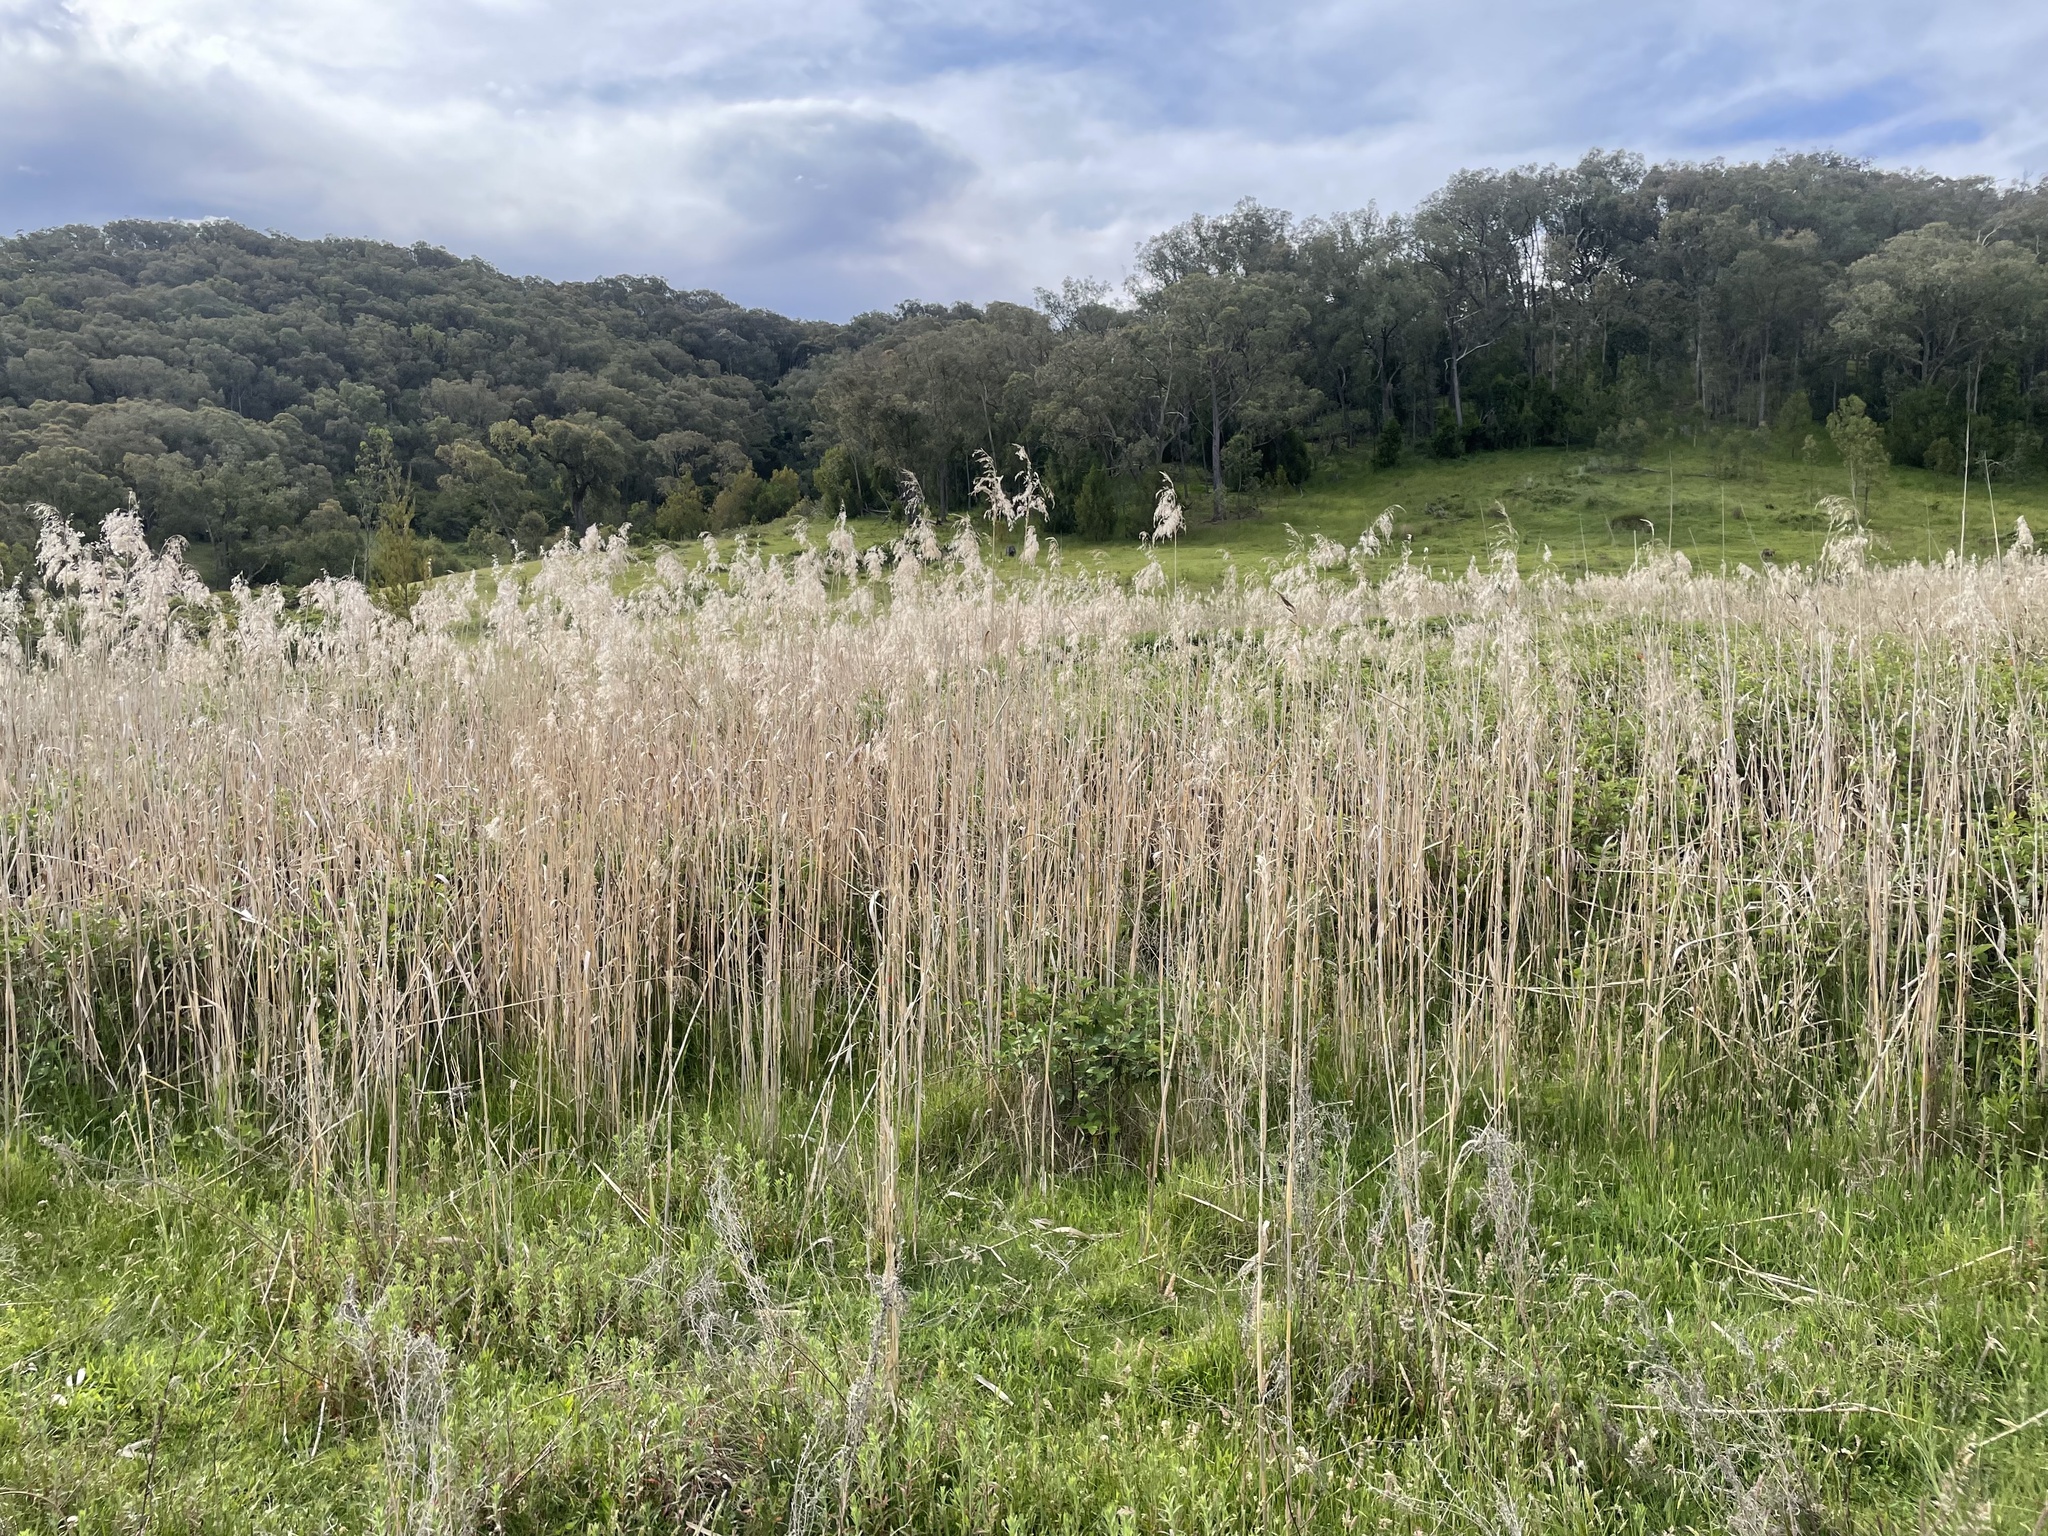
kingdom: Plantae
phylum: Tracheophyta
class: Liliopsida
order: Poales
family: Poaceae
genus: Phragmites
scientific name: Phragmites australis
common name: Common reed
